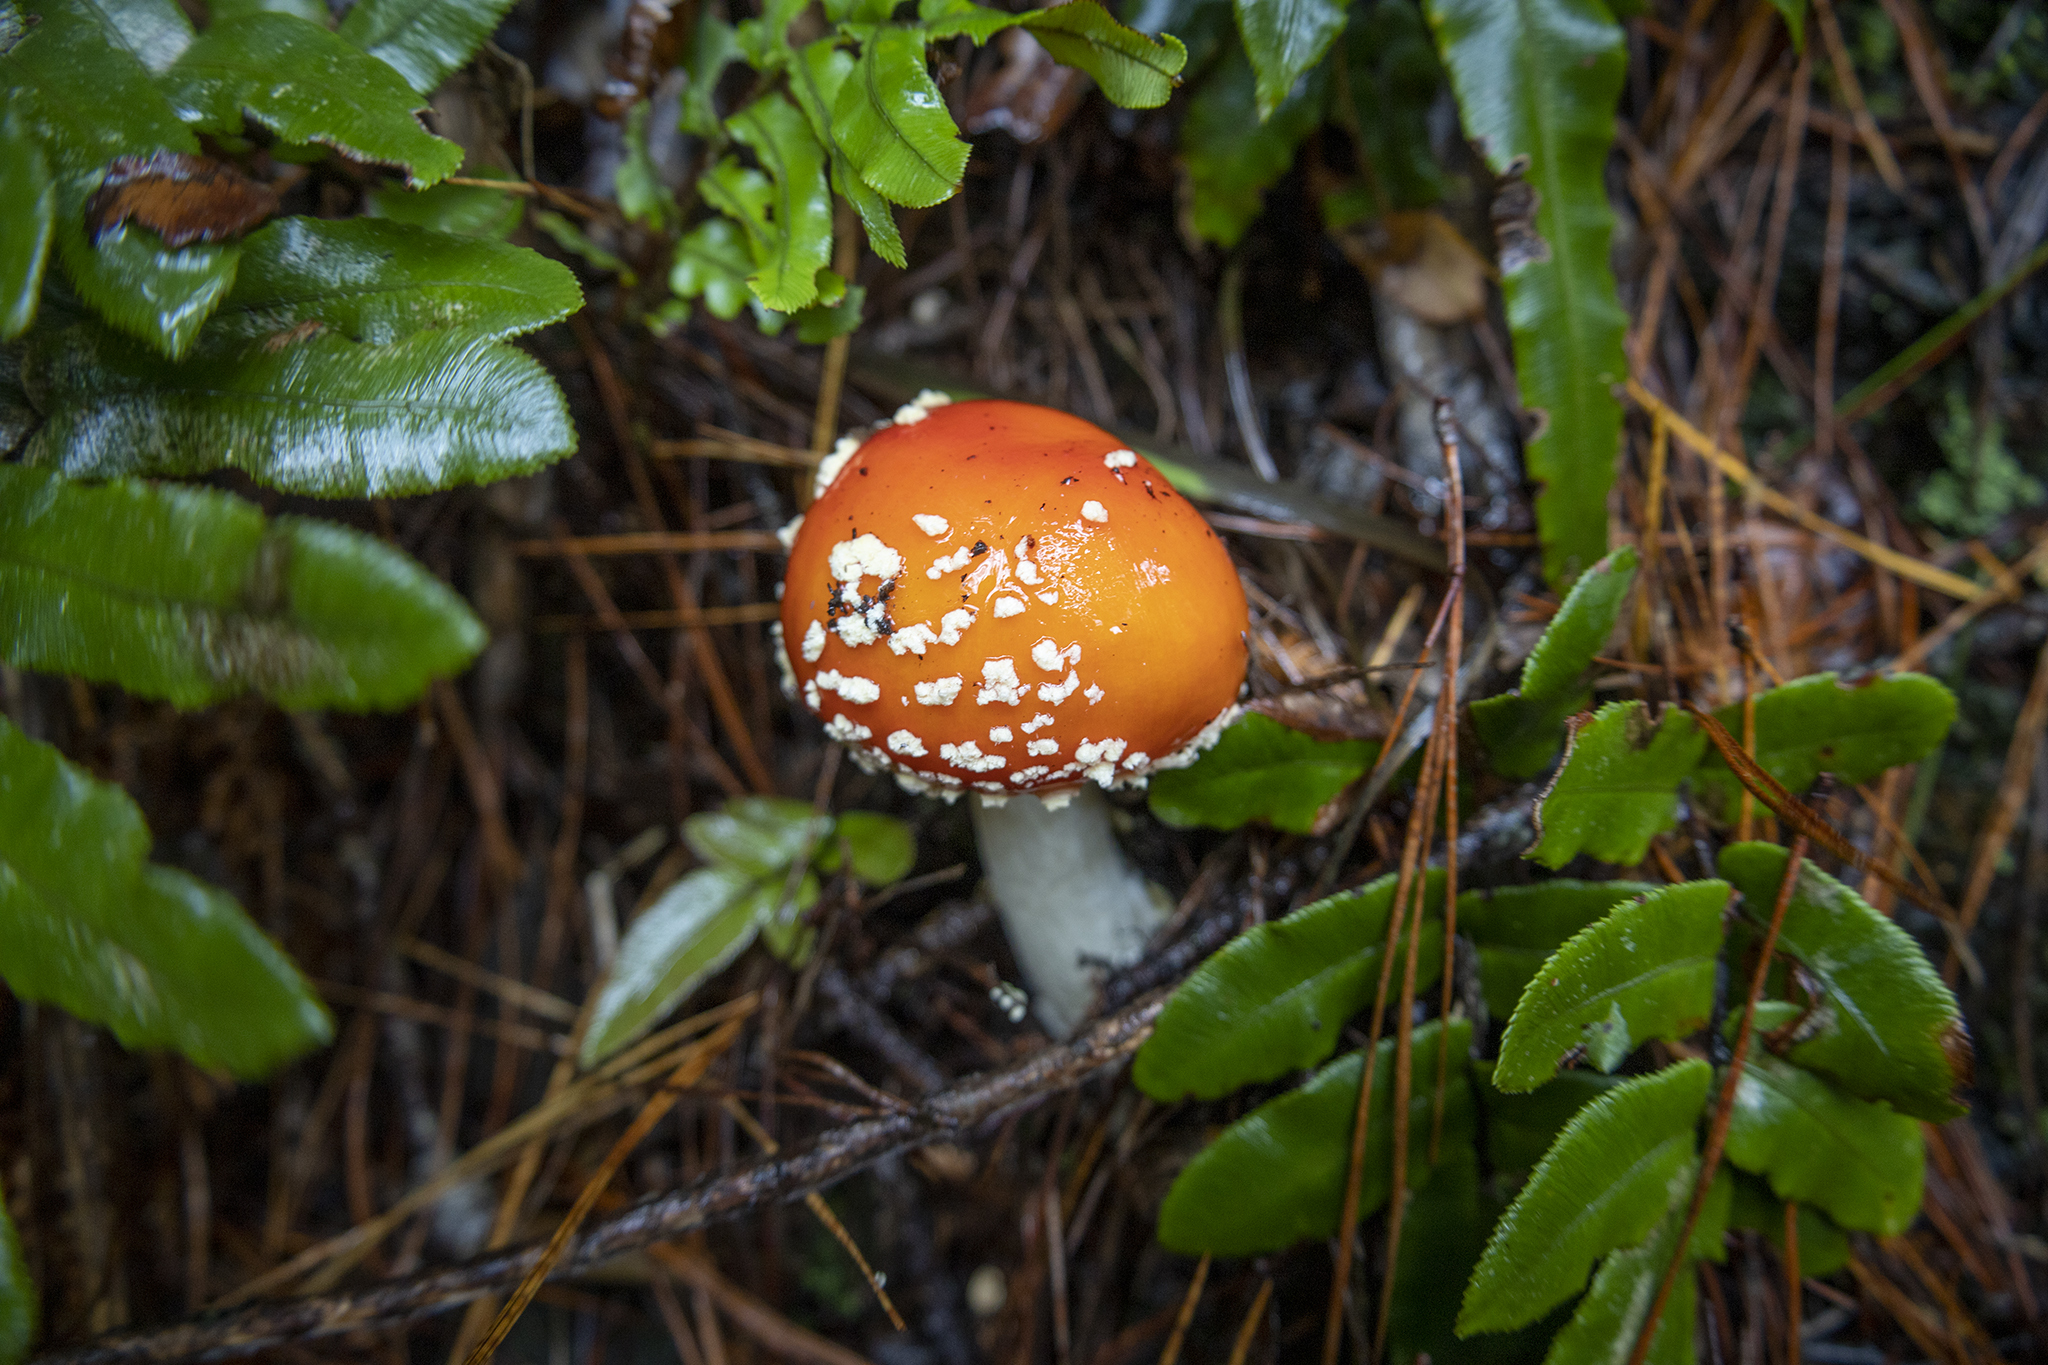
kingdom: Fungi
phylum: Basidiomycota
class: Agaricomycetes
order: Agaricales
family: Amanitaceae
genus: Amanita
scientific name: Amanita muscaria
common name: Fly agaric
